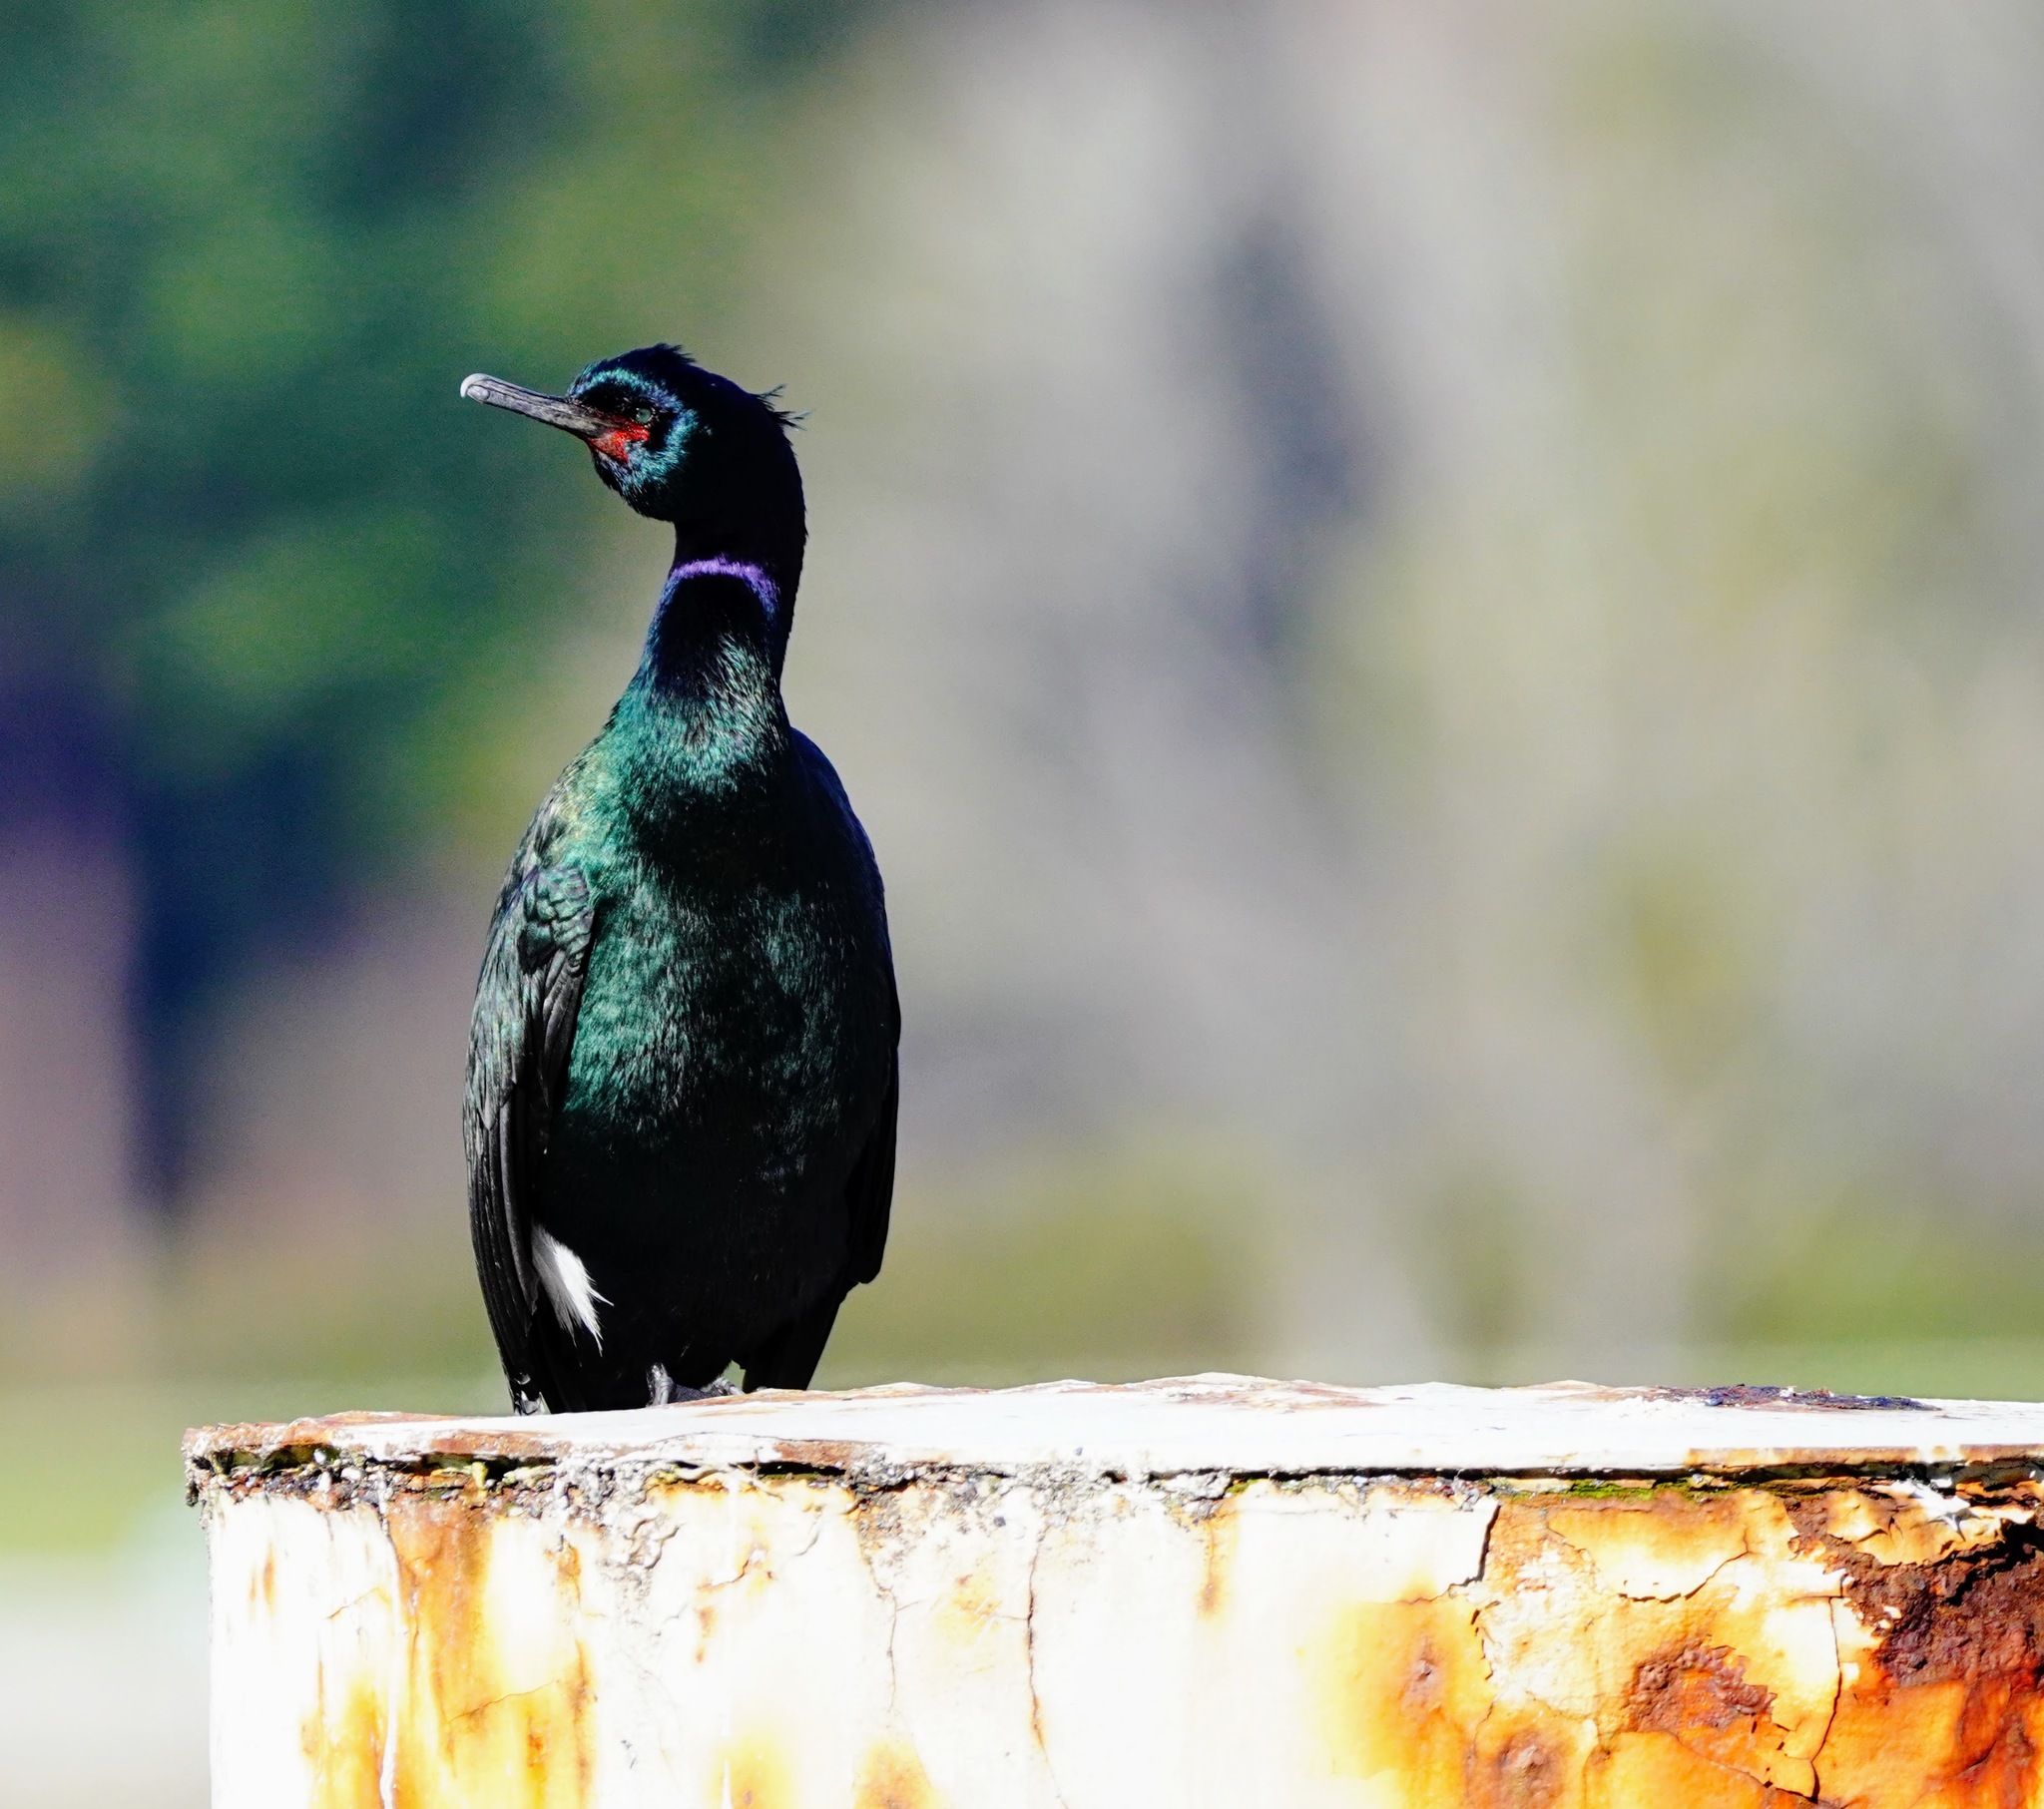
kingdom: Animalia
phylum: Chordata
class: Aves
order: Suliformes
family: Phalacrocoracidae
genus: Phalacrocorax
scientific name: Phalacrocorax pelagicus
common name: Pelagic cormorant
